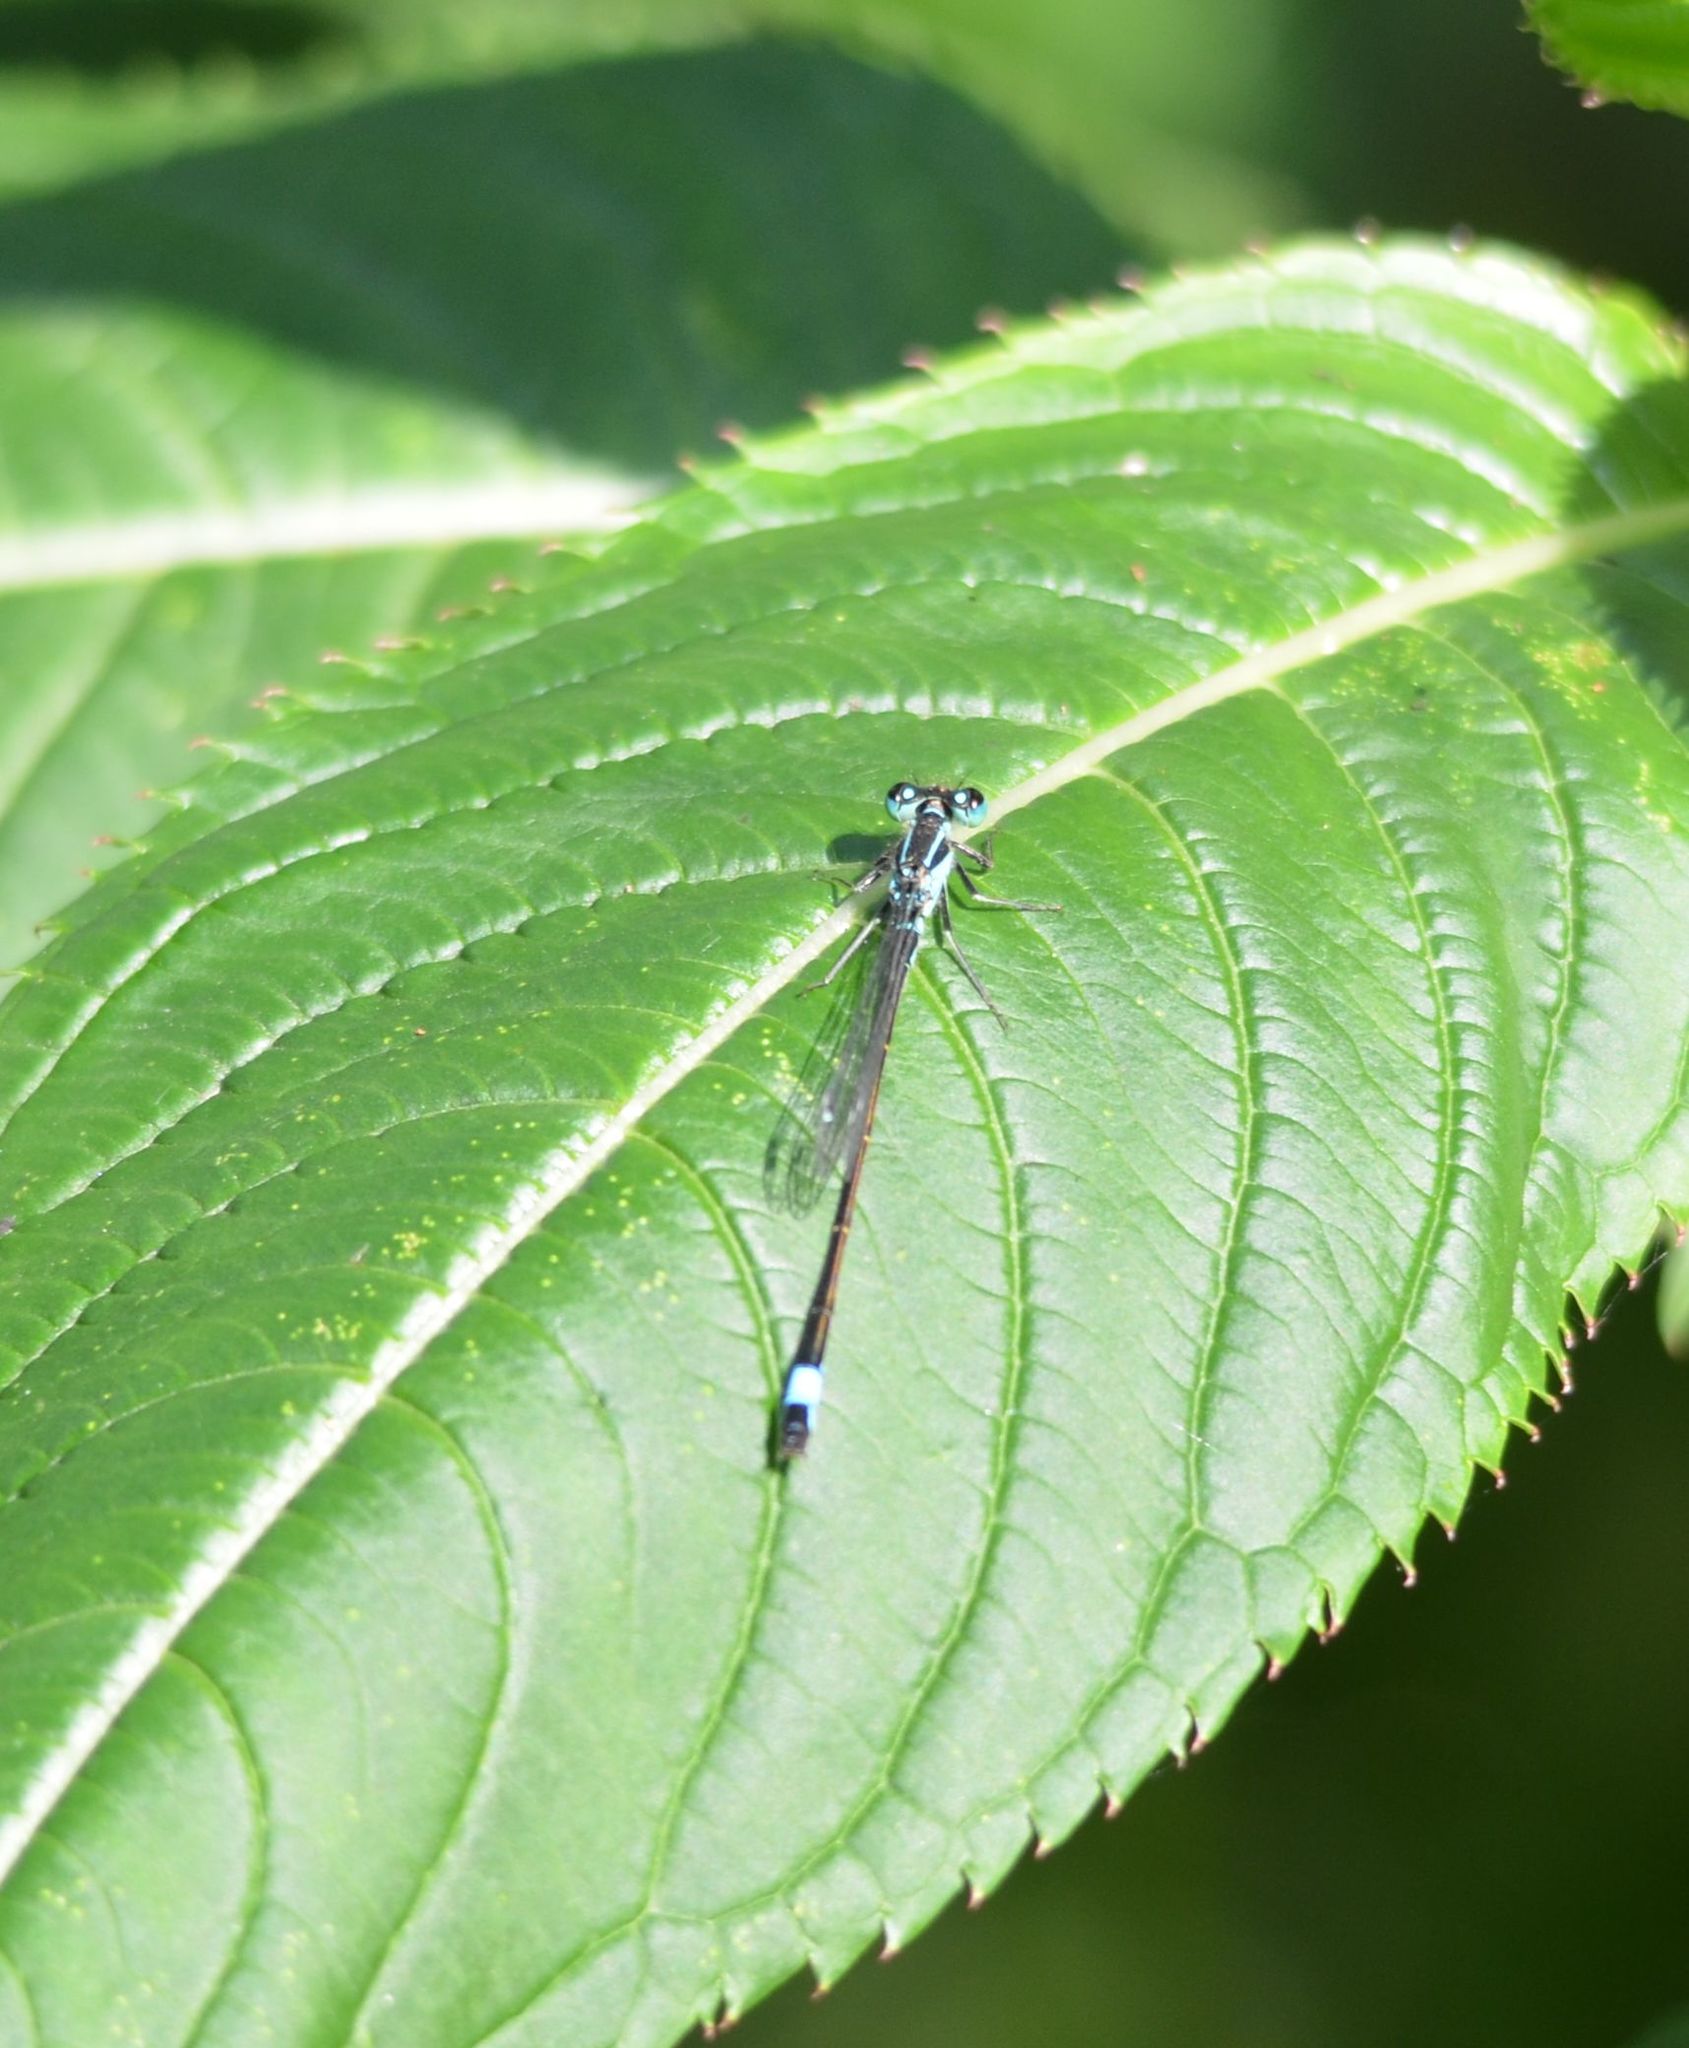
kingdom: Animalia
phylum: Arthropoda
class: Insecta
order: Odonata
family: Coenagrionidae
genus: Ischnura
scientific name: Ischnura elegans
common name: Blue-tailed damselfly
